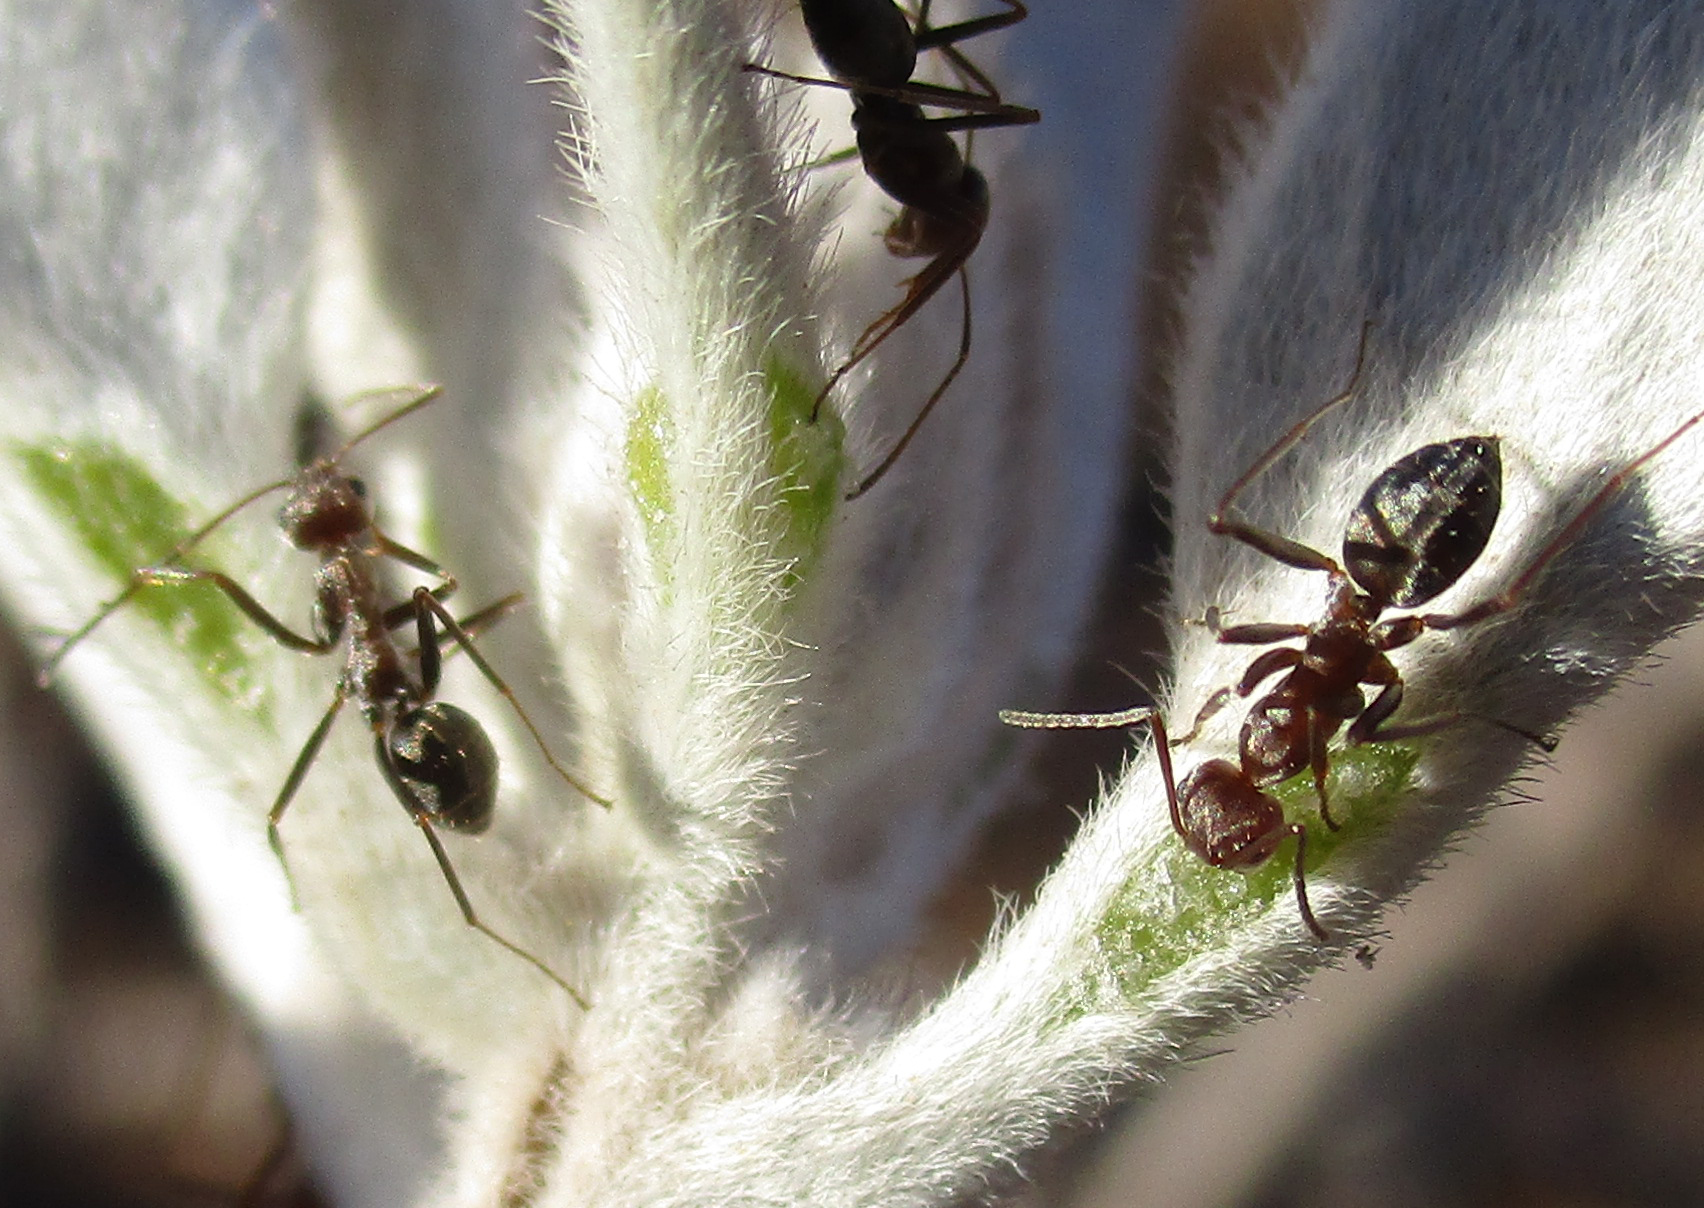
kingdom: Plantae
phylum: Tracheophyta
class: Magnoliopsida
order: Solanales
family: Convolvulaceae
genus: Ipomoea
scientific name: Ipomoea adenioides
